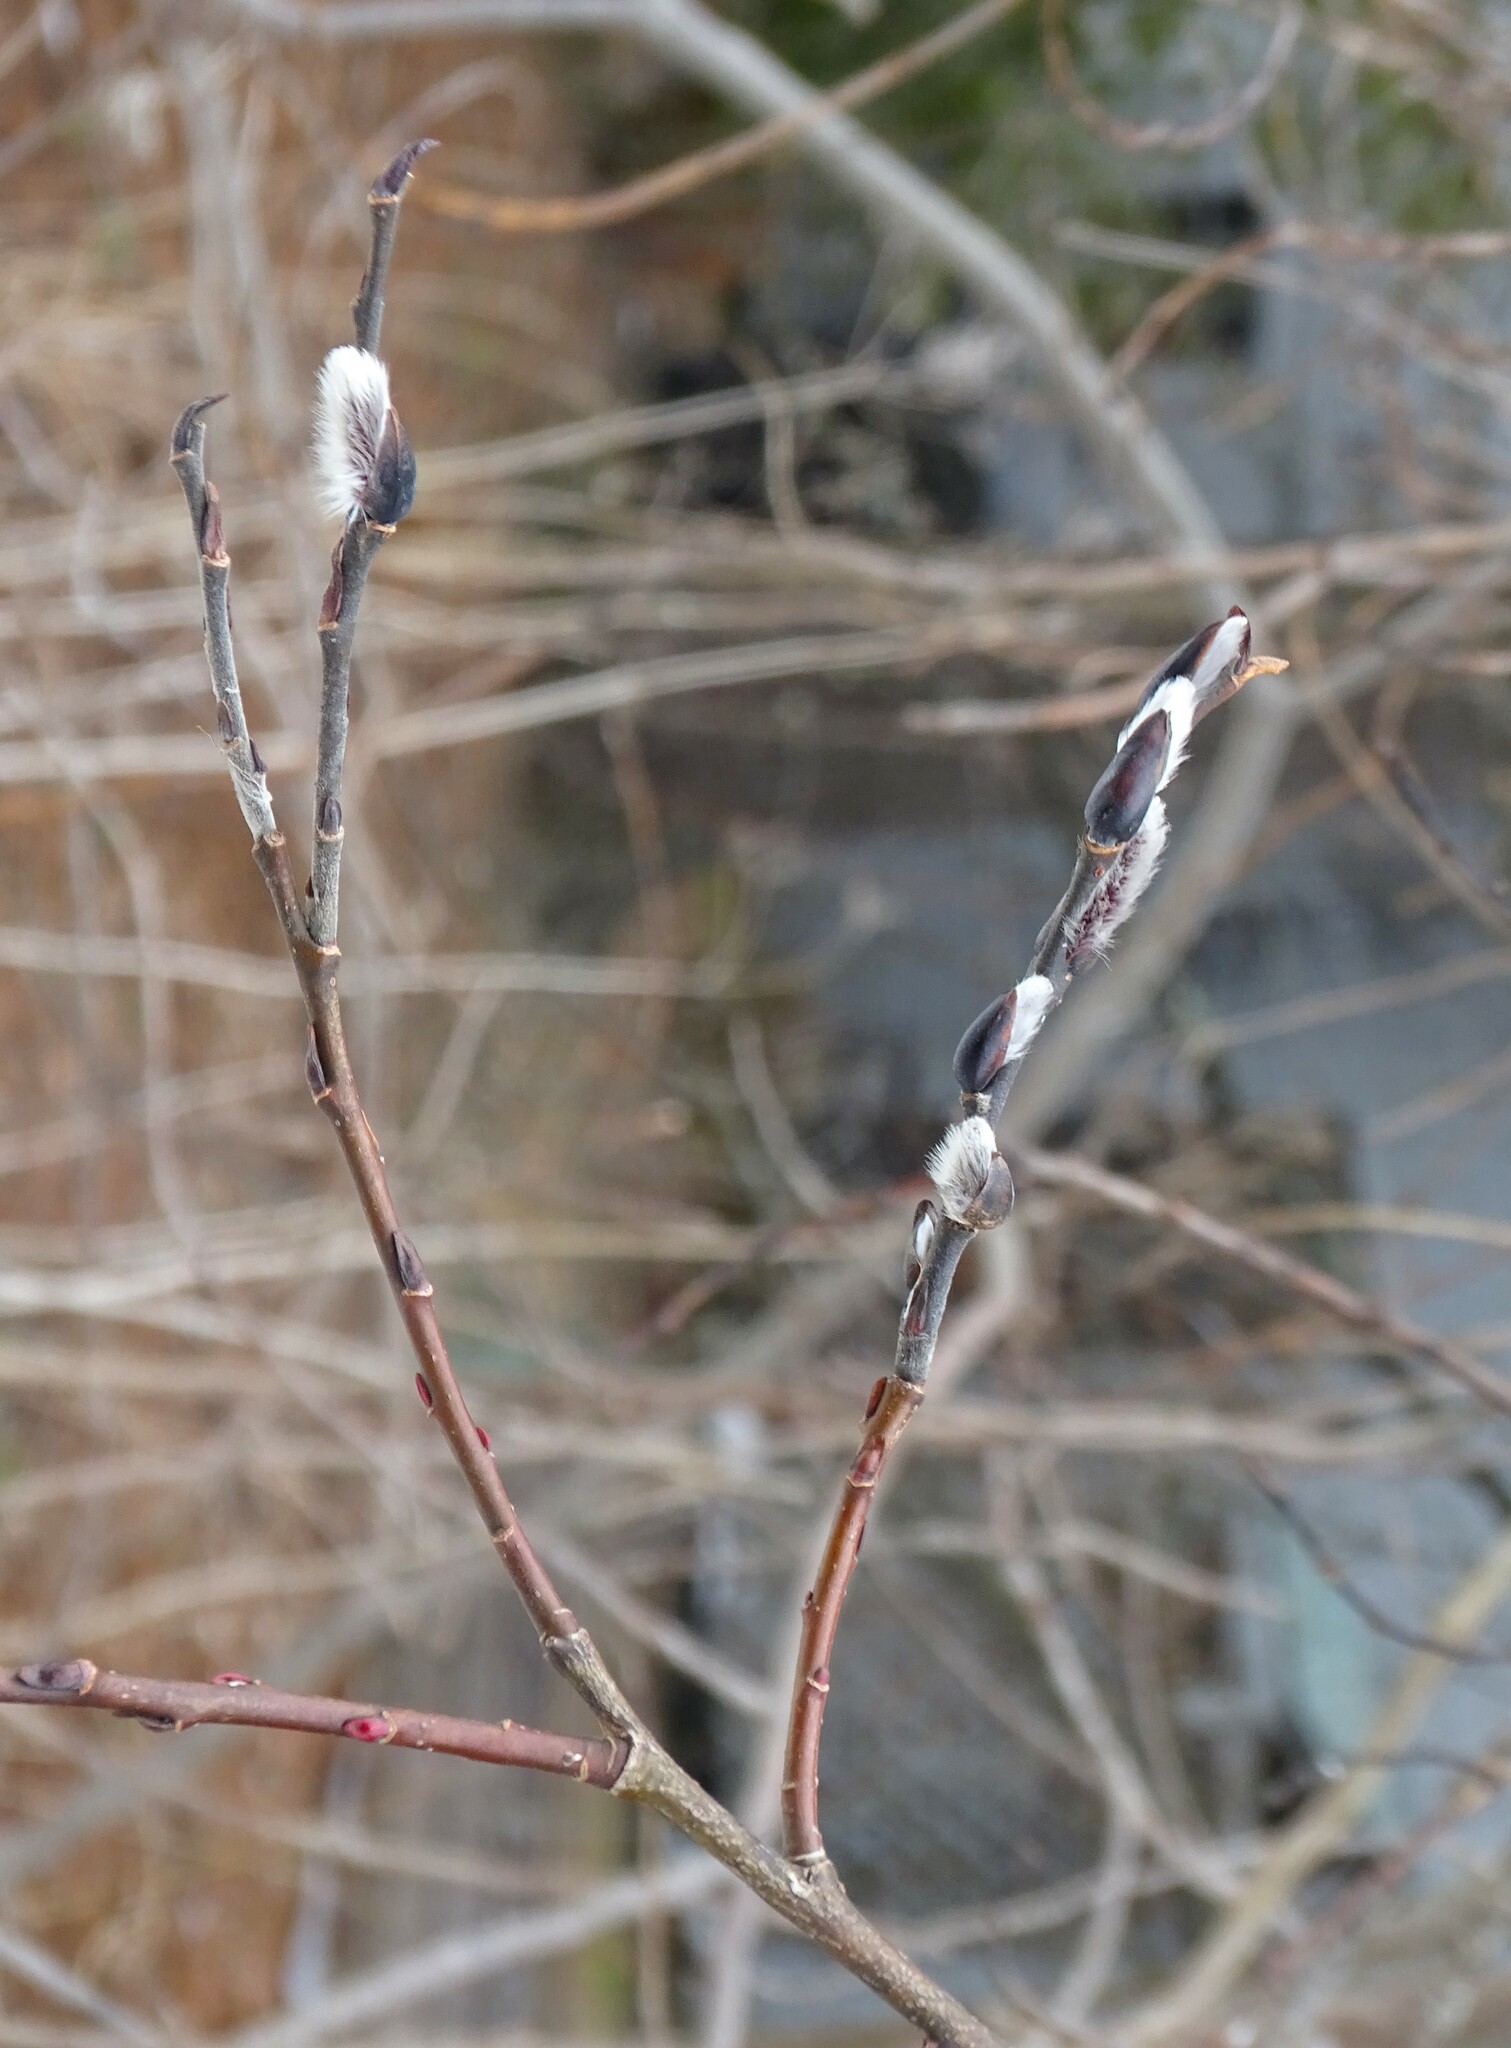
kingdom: Plantae
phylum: Tracheophyta
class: Magnoliopsida
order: Malpighiales
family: Salicaceae
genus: Salix
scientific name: Salix discolor
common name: Glaucous willow
